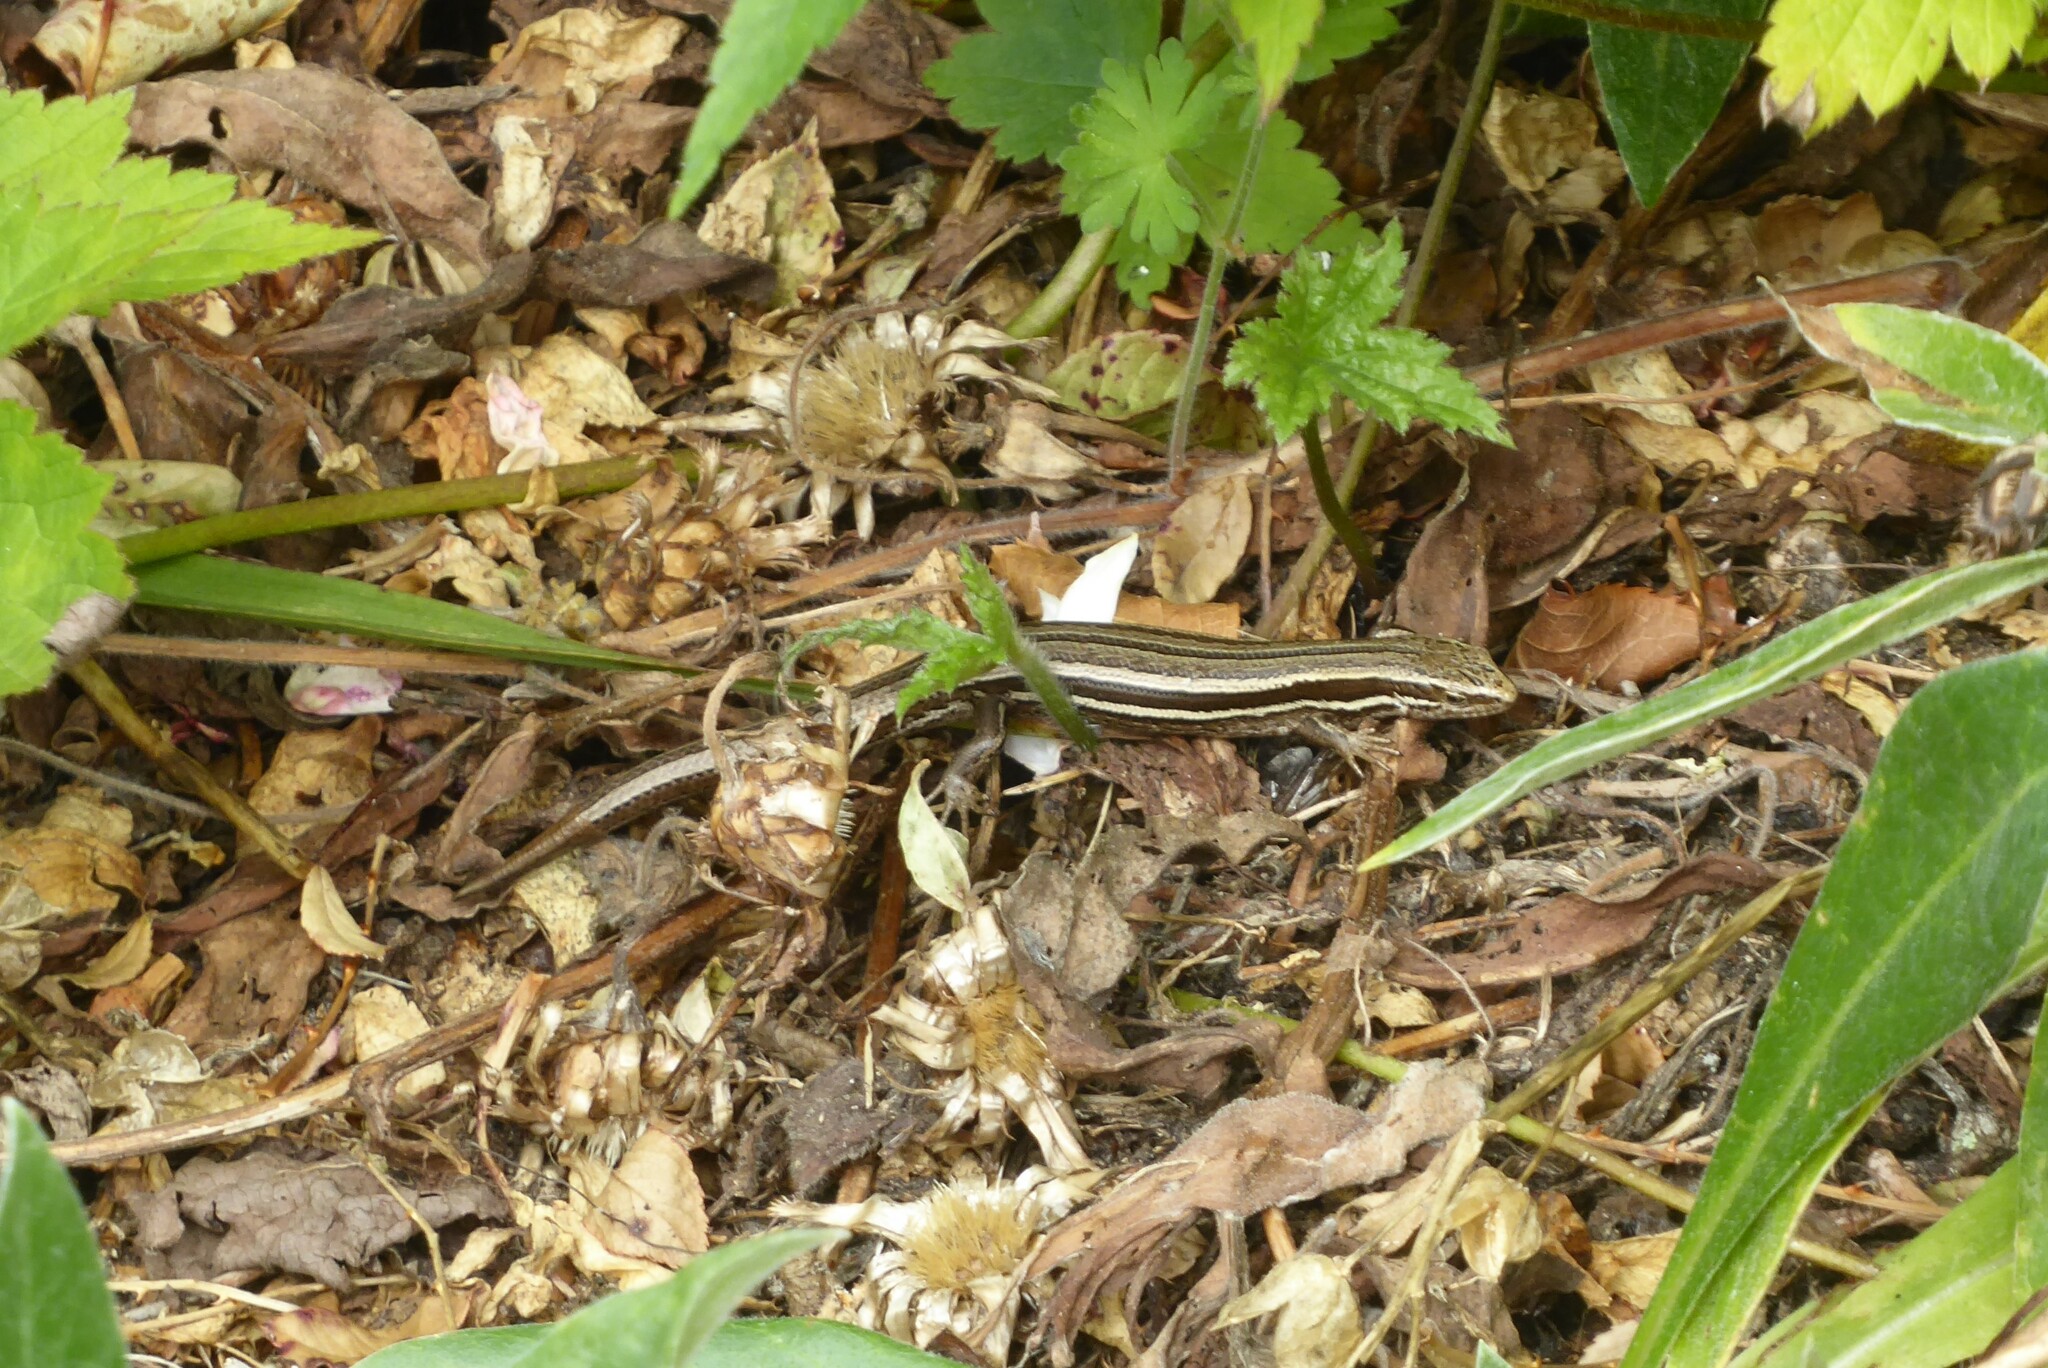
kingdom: Animalia
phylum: Chordata
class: Squamata
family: Scincidae
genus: Oligosoma
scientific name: Oligosoma polychroma
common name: Common new zealand skink
